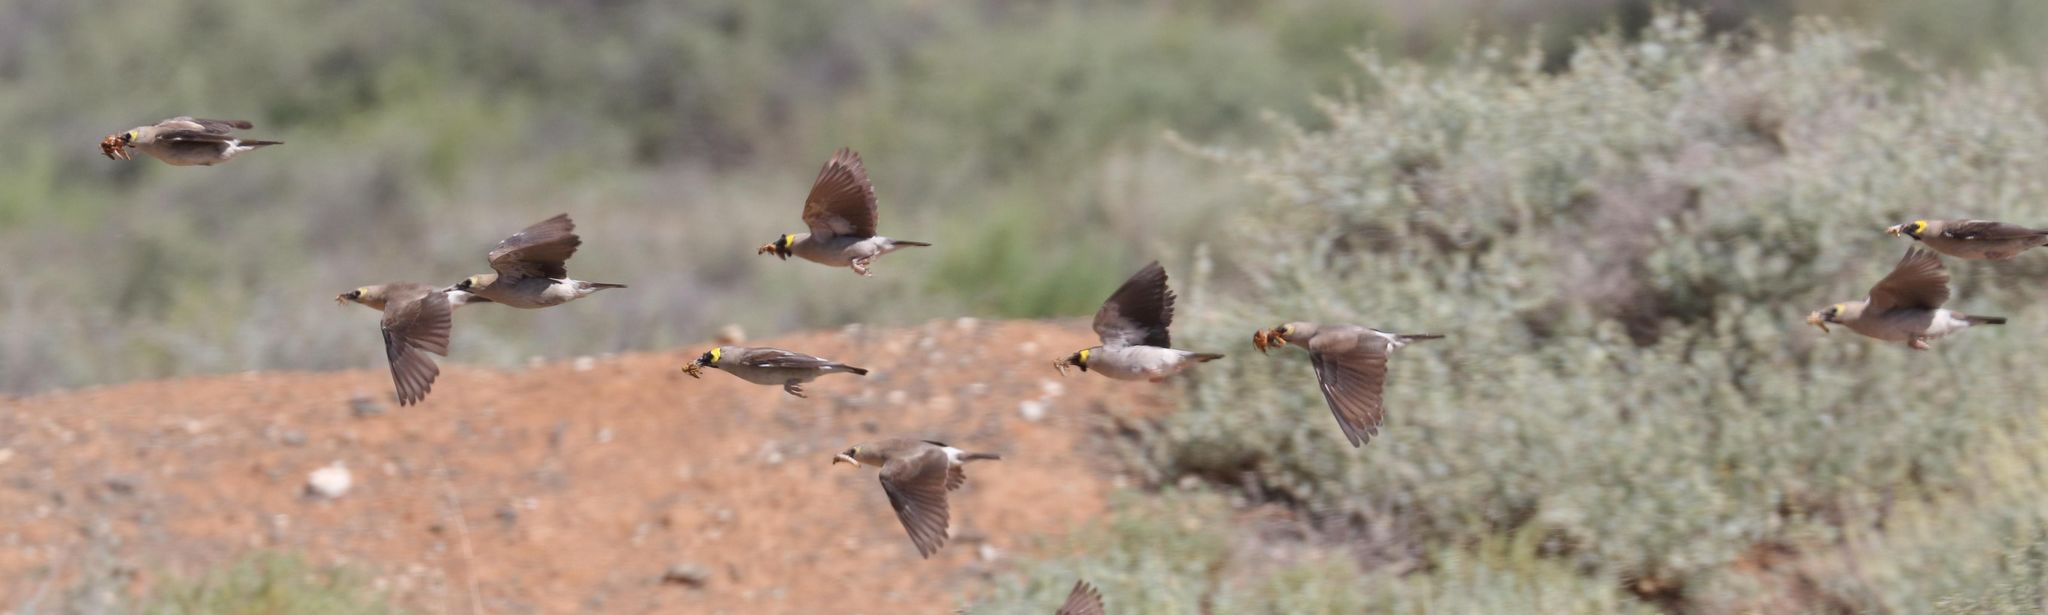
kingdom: Animalia
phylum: Chordata
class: Aves
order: Passeriformes
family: Sturnidae
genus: Creatophora
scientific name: Creatophora cinerea
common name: Wattled starling
